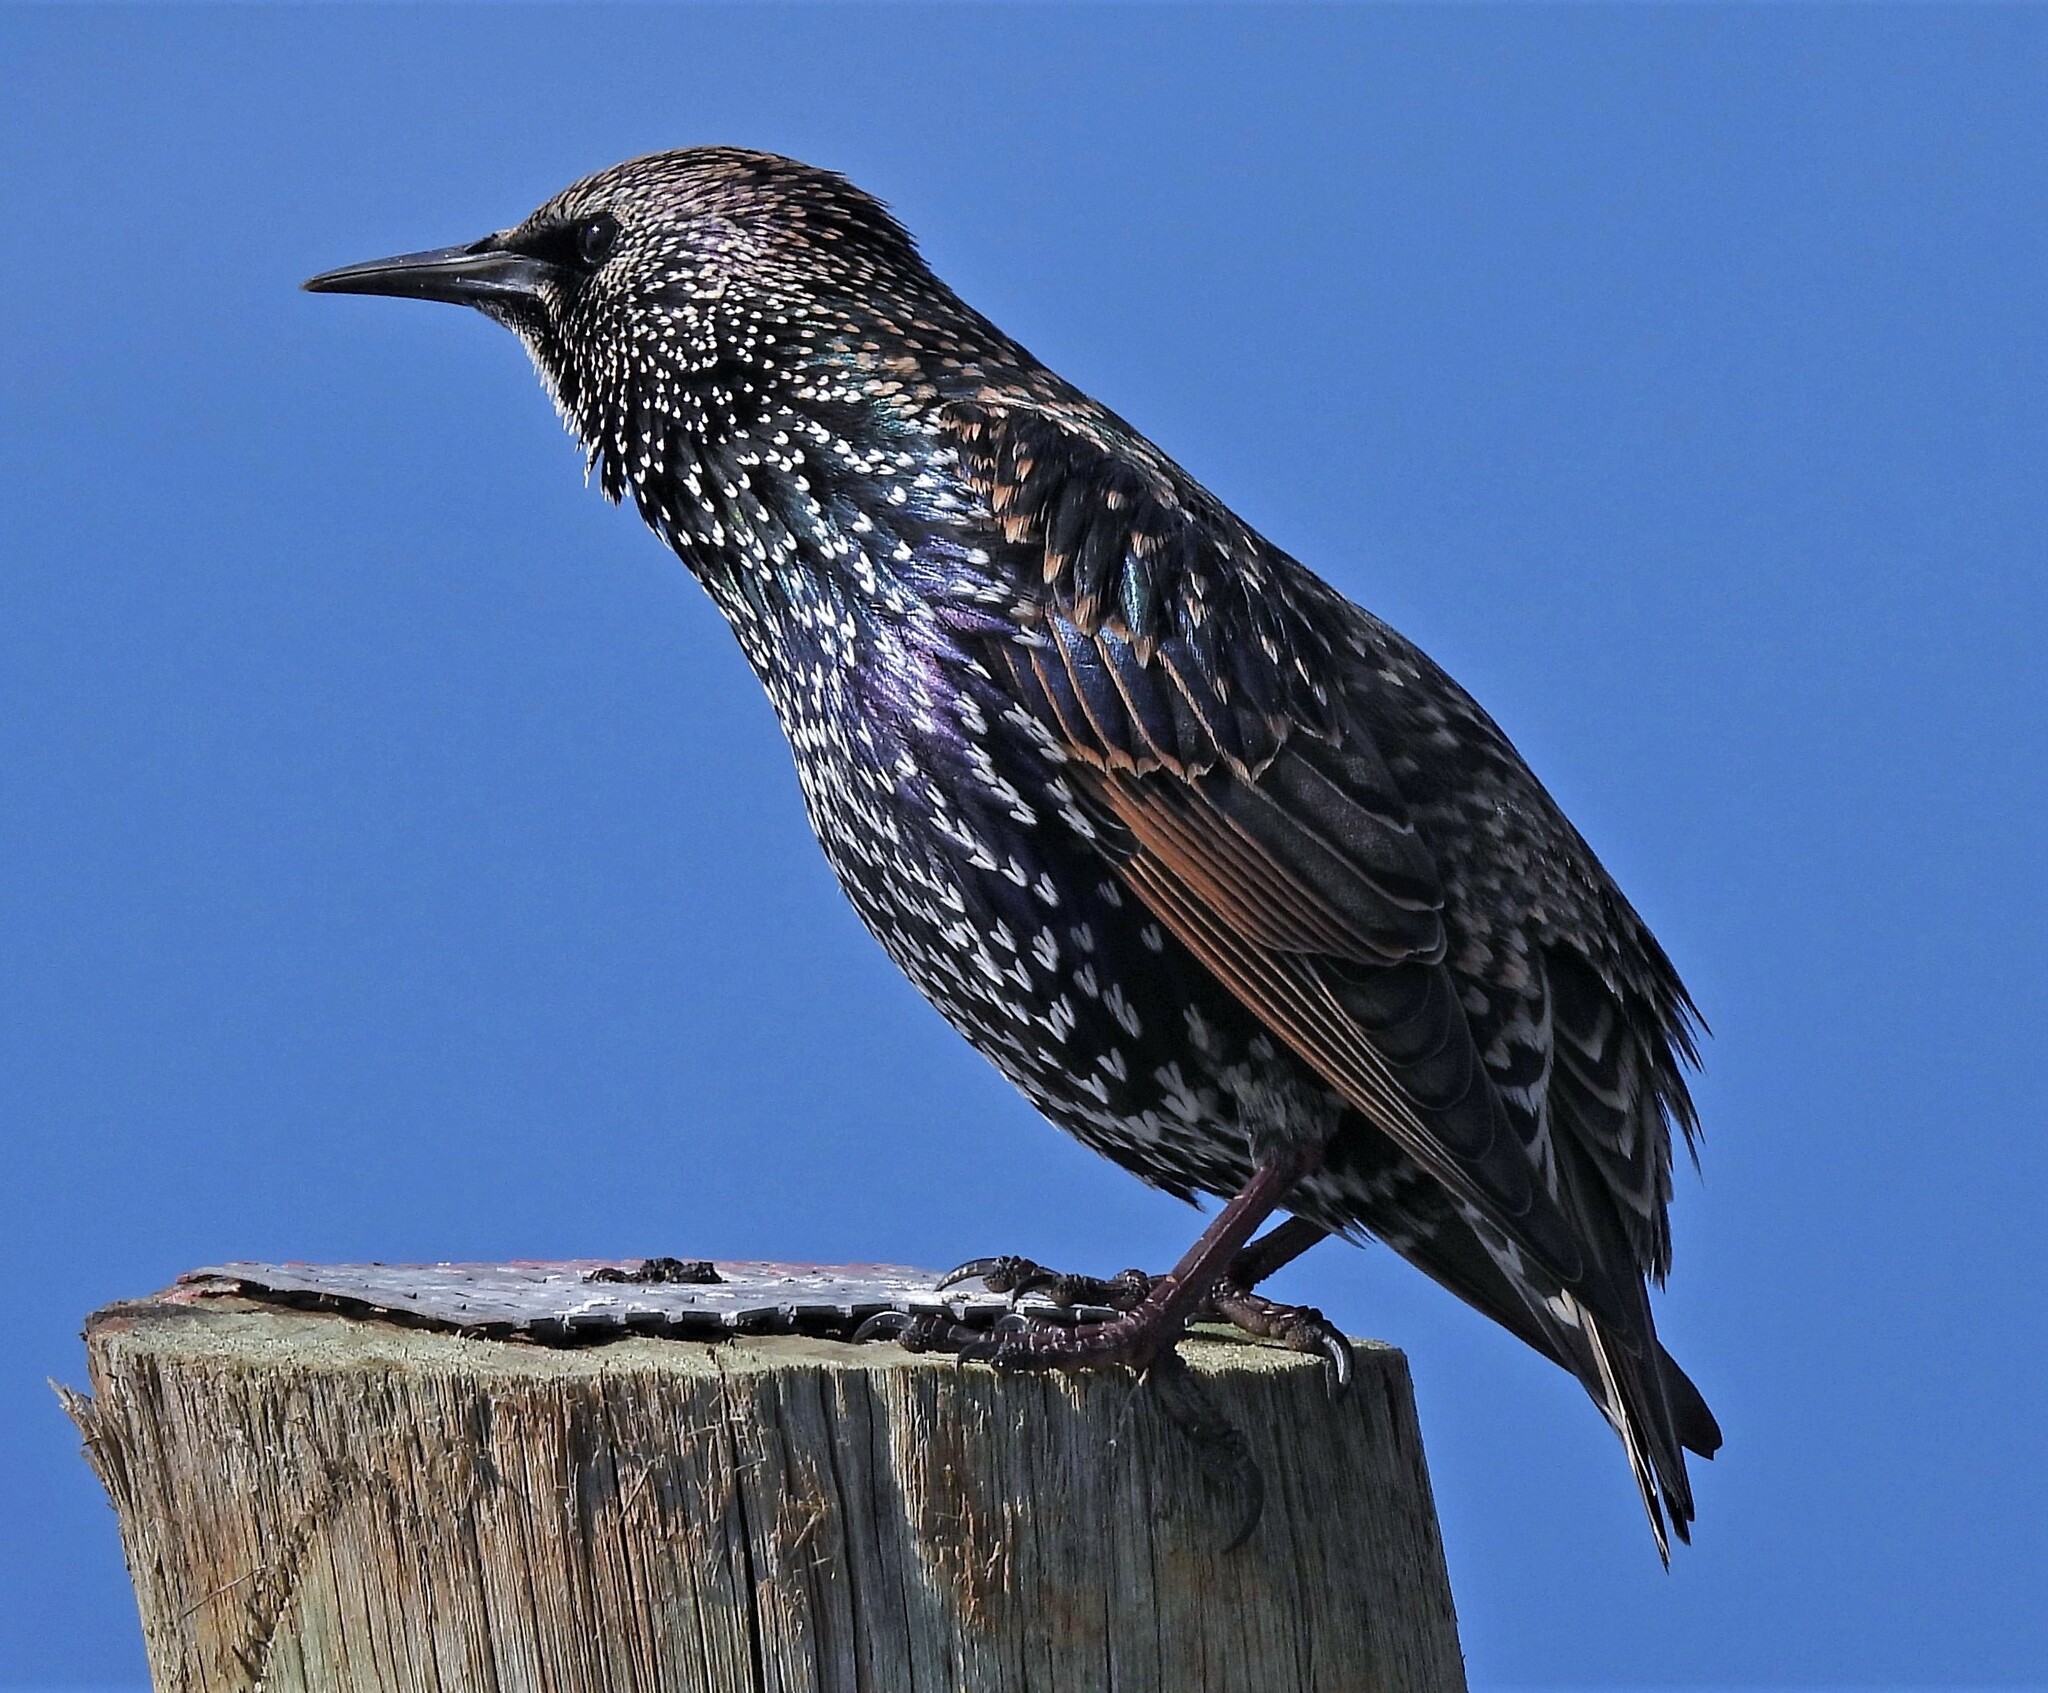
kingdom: Animalia
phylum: Chordata
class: Aves
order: Passeriformes
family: Sturnidae
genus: Sturnus
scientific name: Sturnus vulgaris
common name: Common starling
